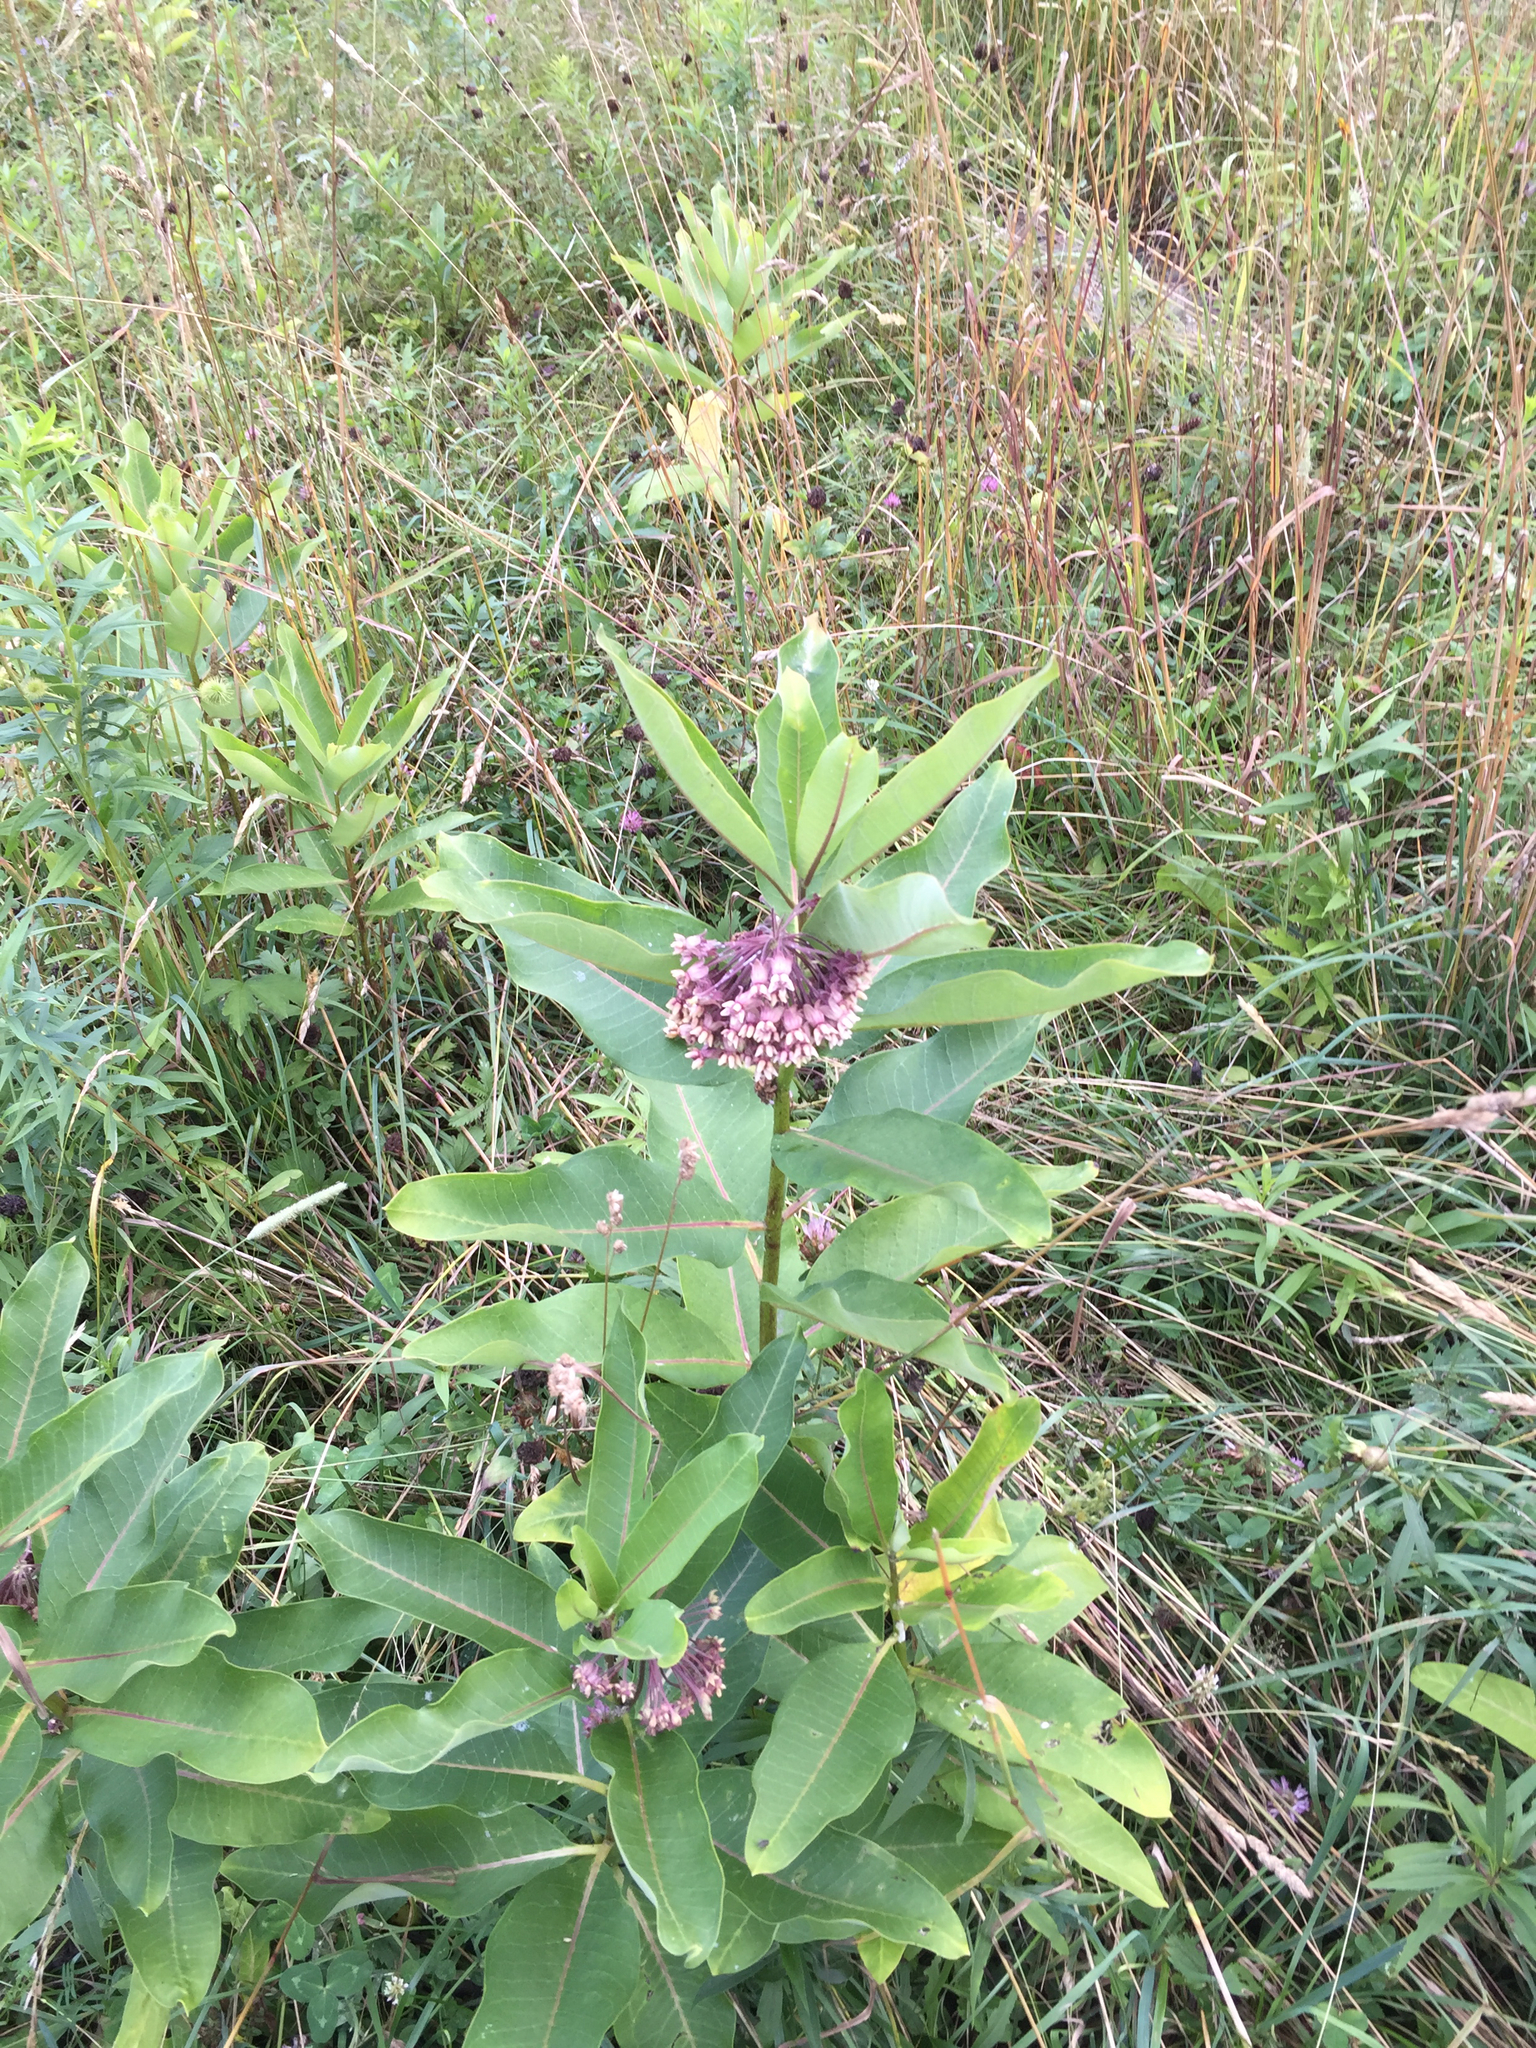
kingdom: Plantae
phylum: Tracheophyta
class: Magnoliopsida
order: Gentianales
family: Apocynaceae
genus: Asclepias
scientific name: Asclepias syriaca
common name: Common milkweed
